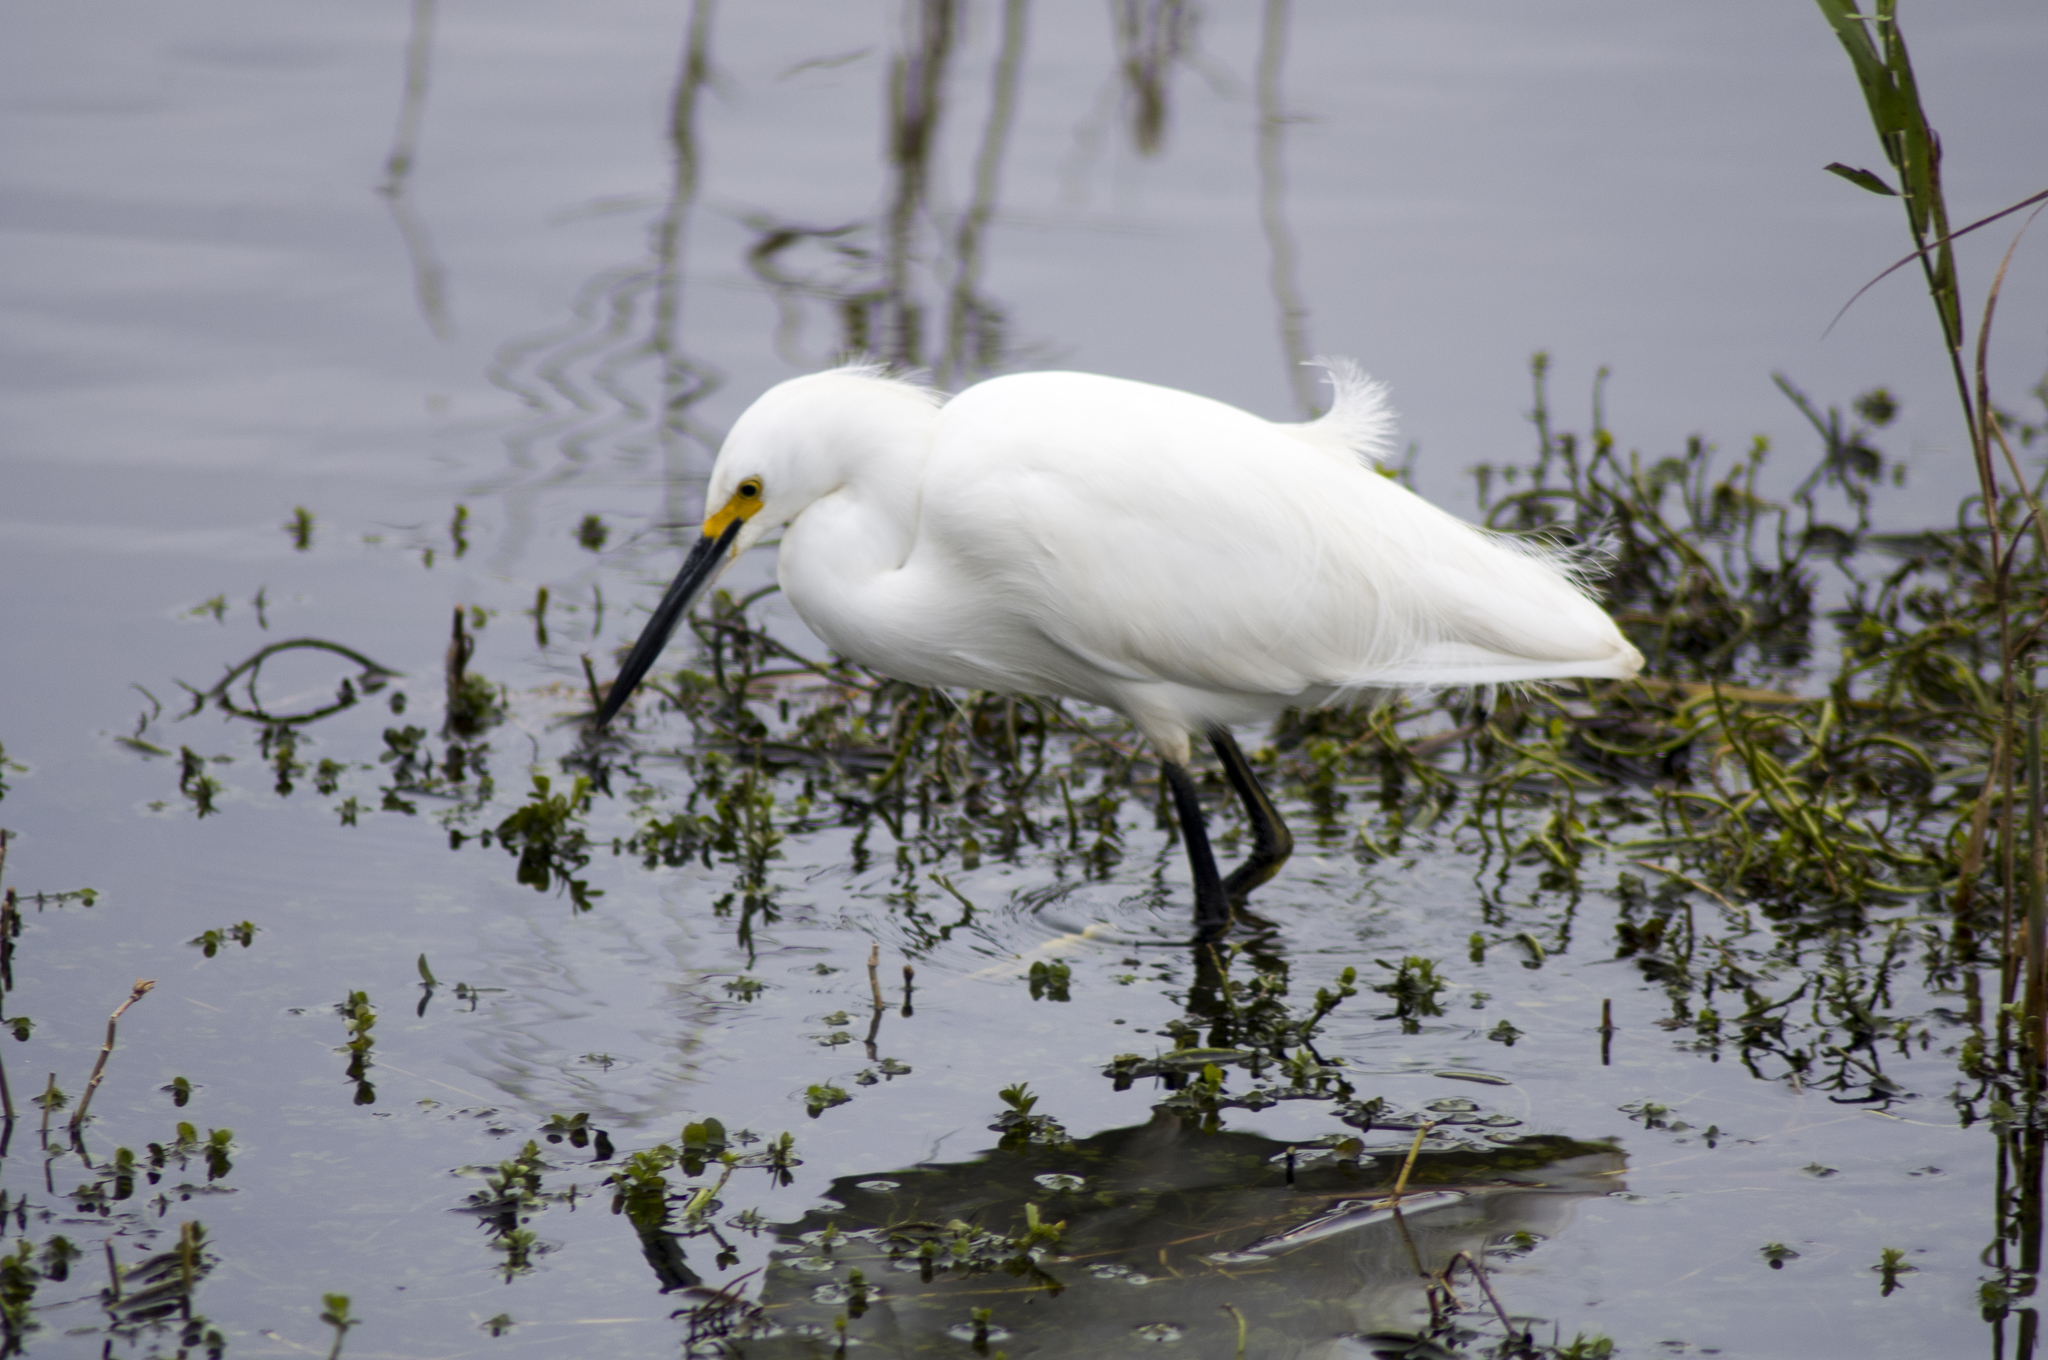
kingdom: Animalia
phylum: Chordata
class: Aves
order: Pelecaniformes
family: Ardeidae
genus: Egretta
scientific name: Egretta thula
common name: Snowy egret
